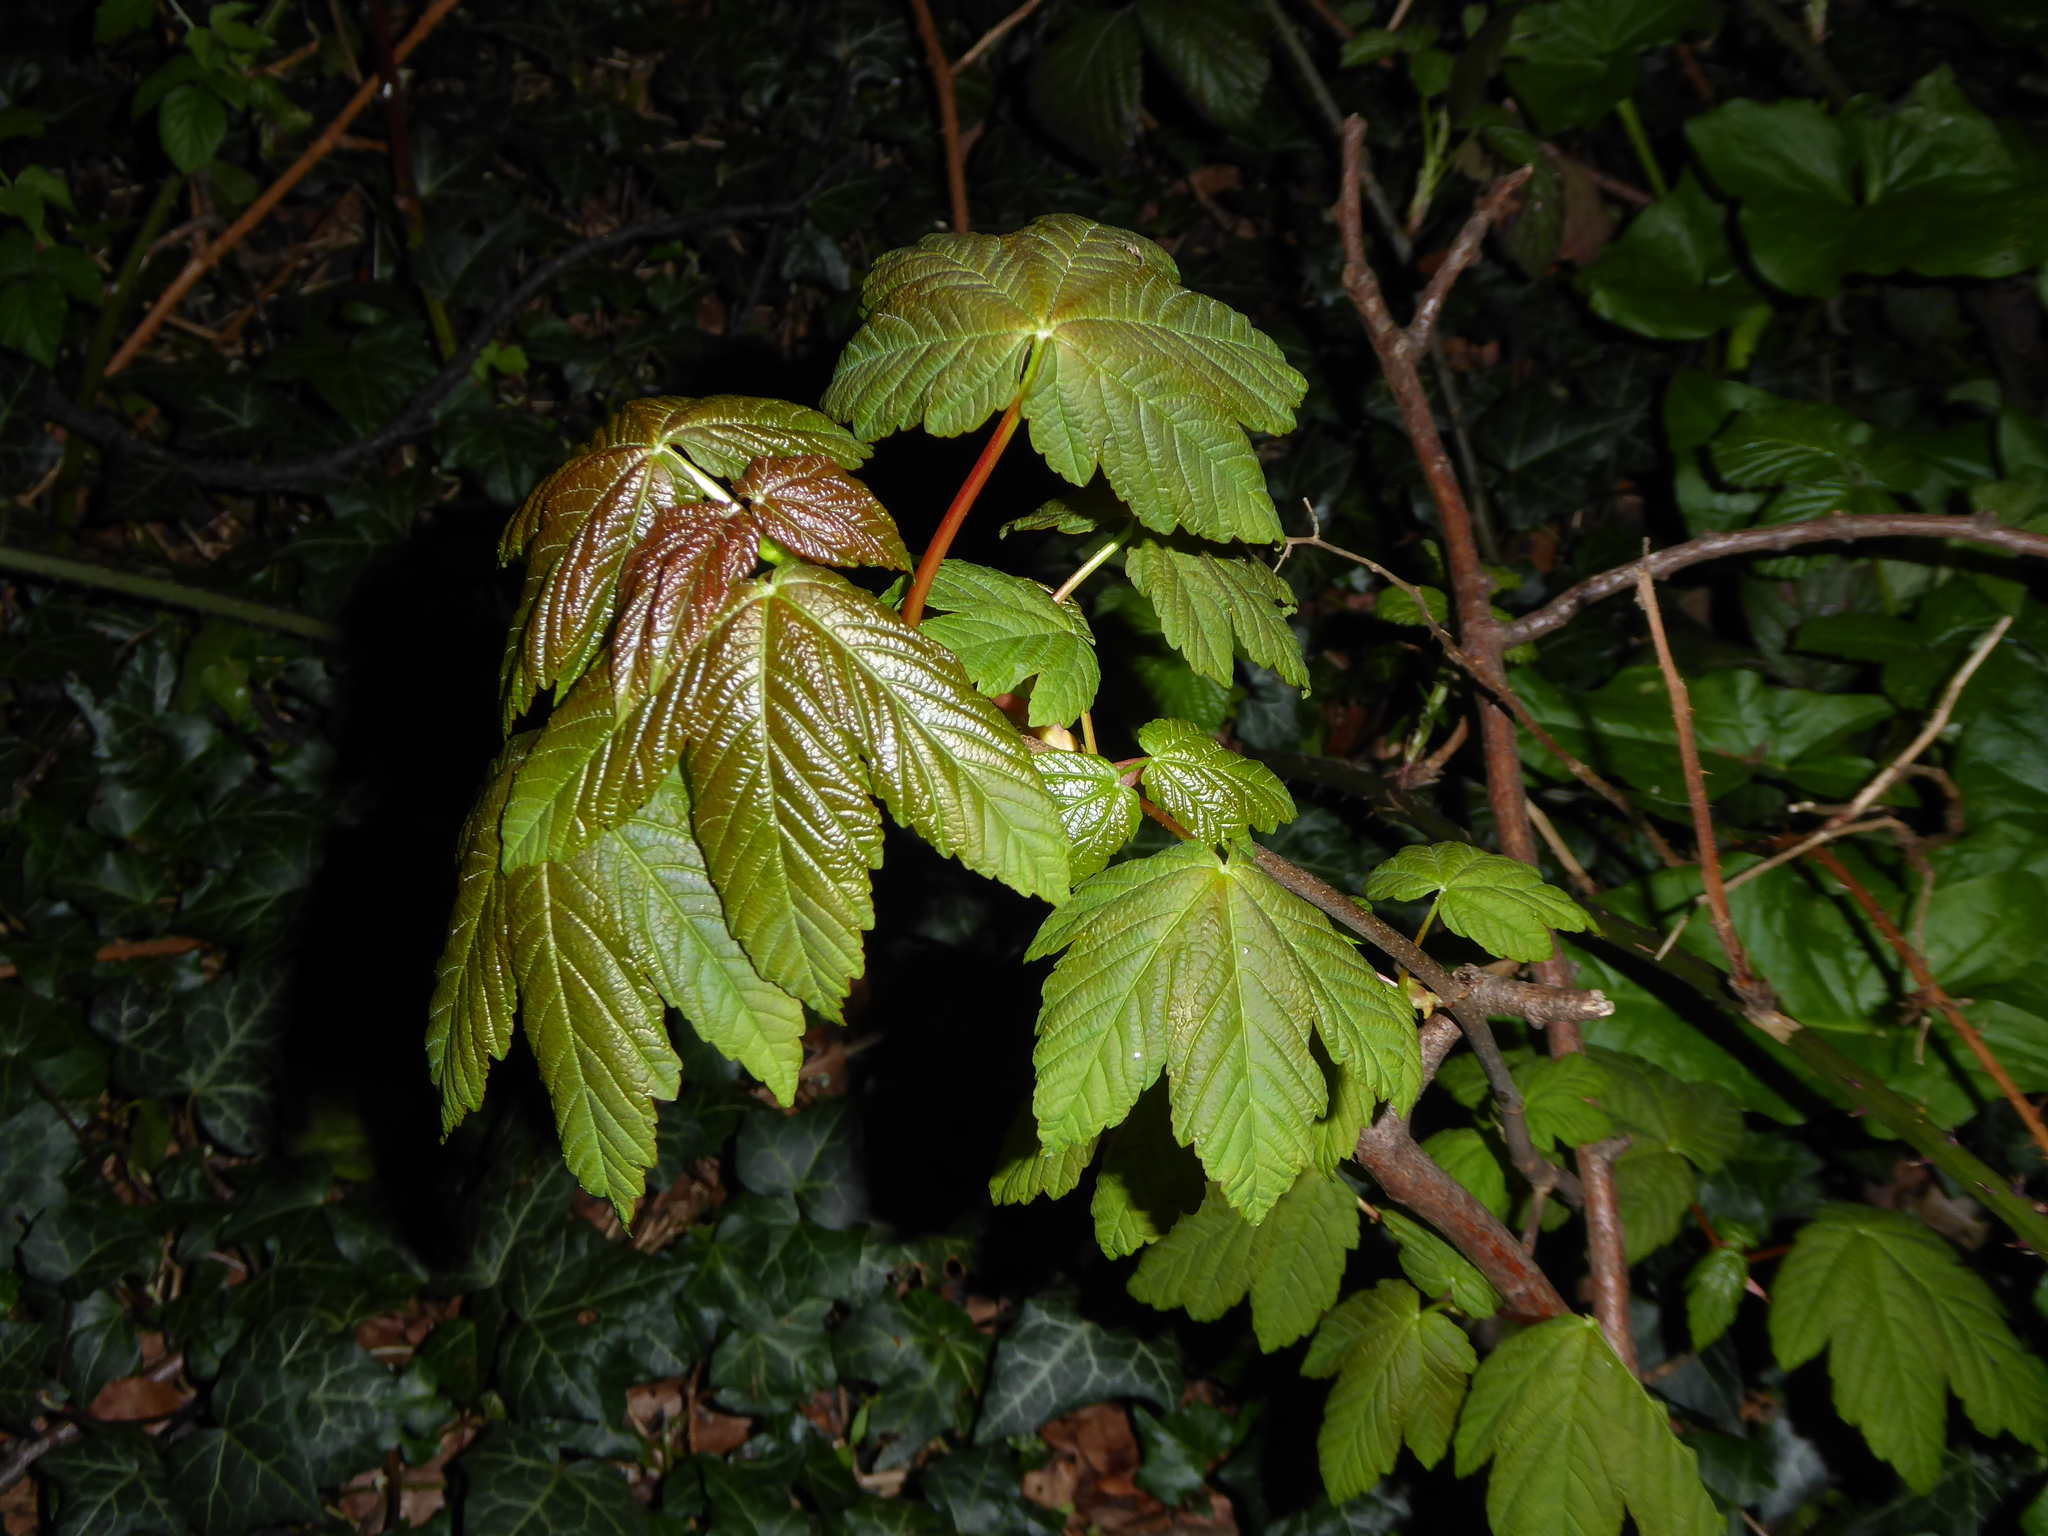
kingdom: Plantae
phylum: Tracheophyta
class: Magnoliopsida
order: Sapindales
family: Sapindaceae
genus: Acer
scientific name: Acer pseudoplatanus
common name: Sycamore
